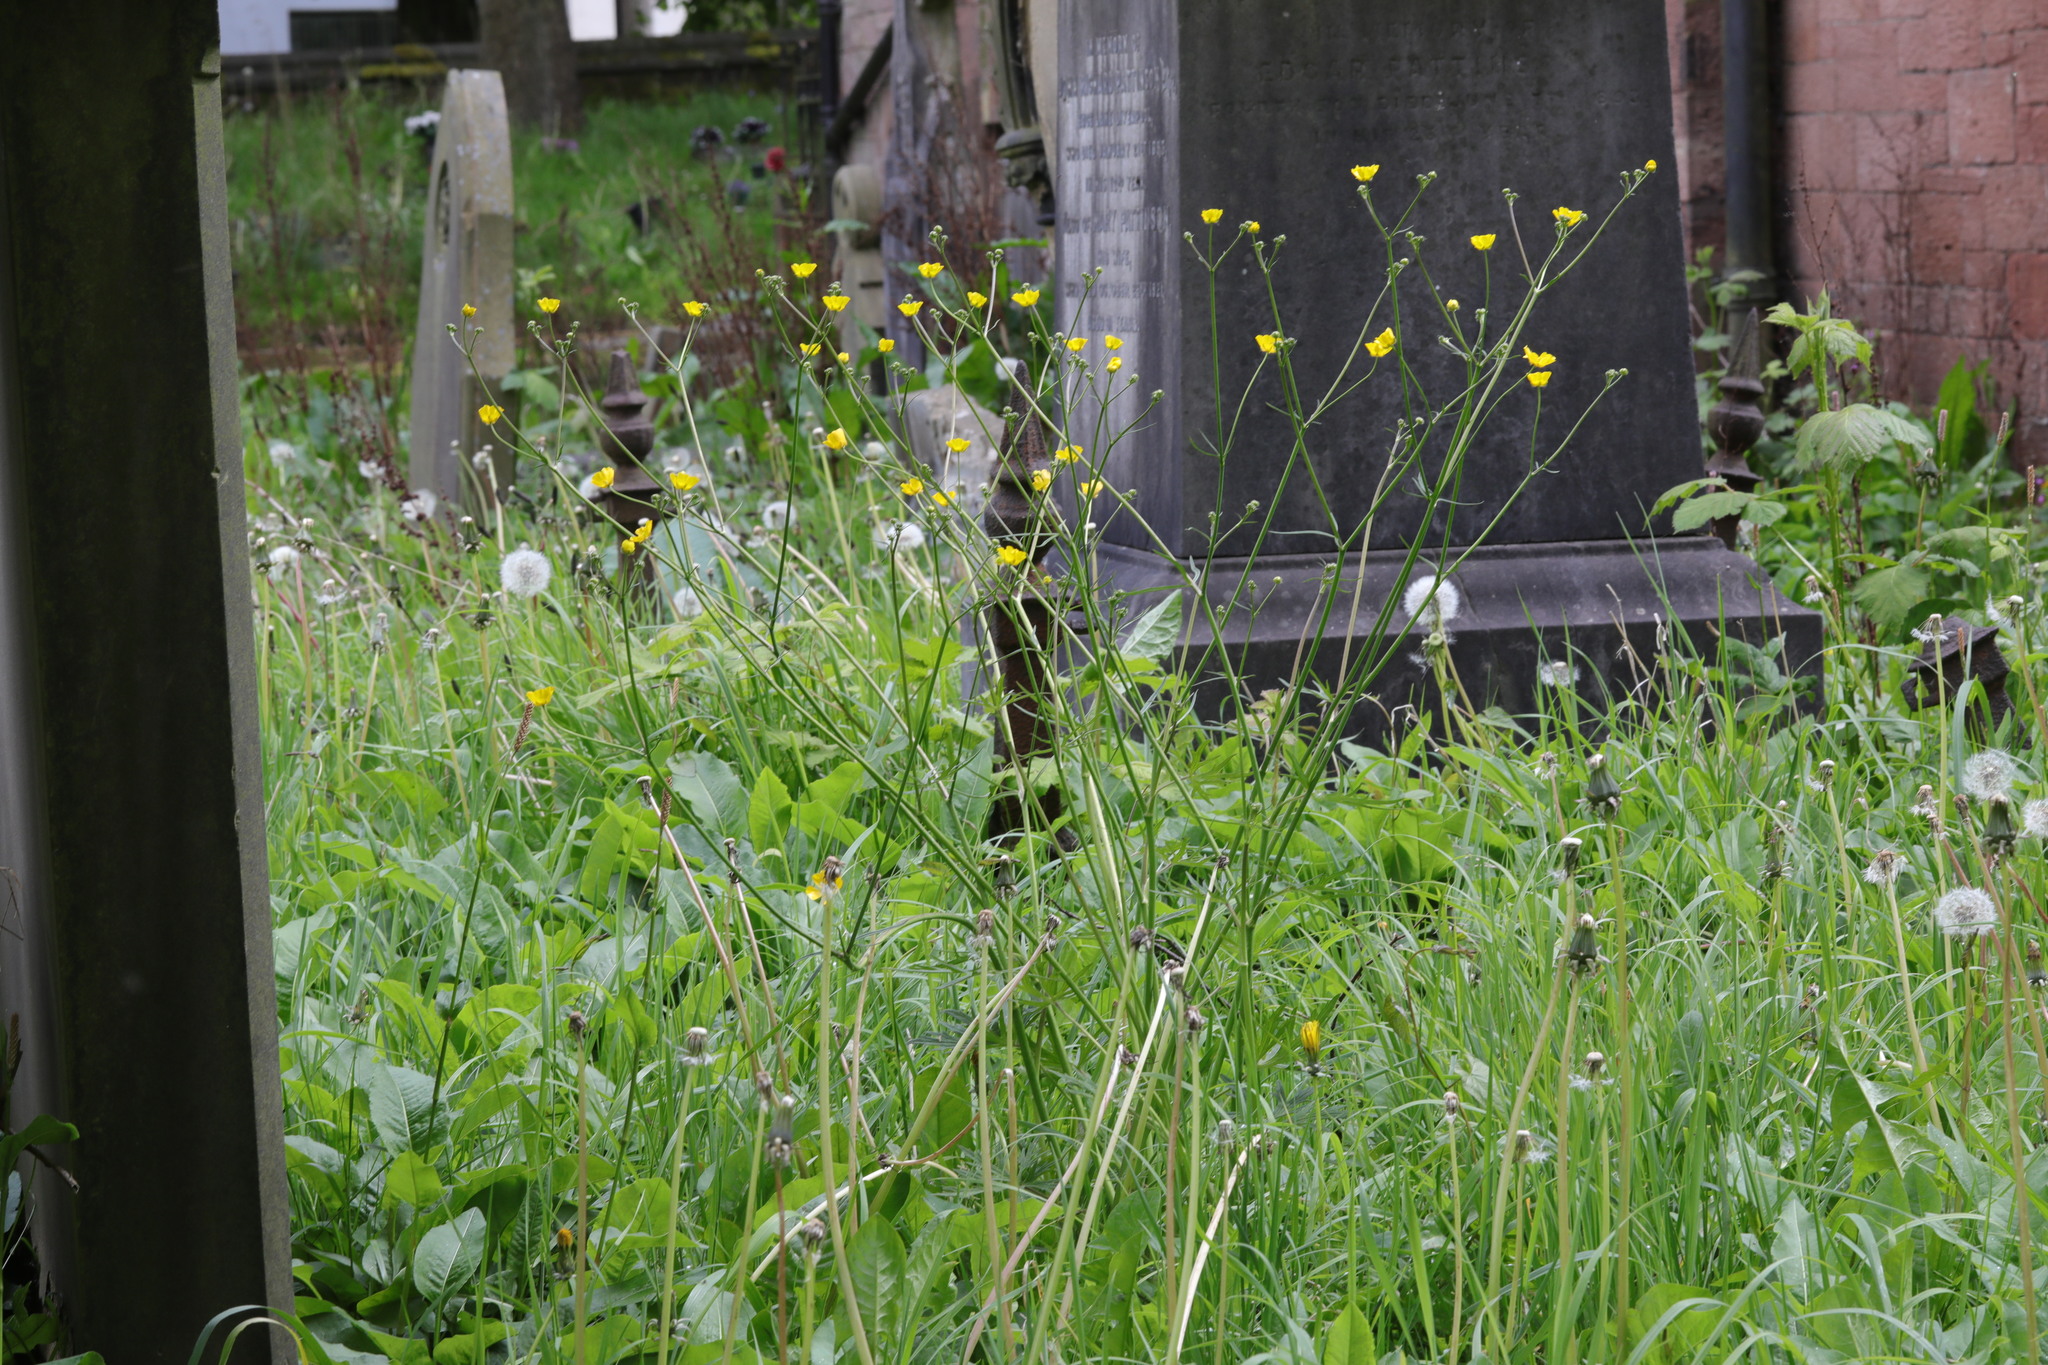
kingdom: Plantae
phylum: Tracheophyta
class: Magnoliopsida
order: Ranunculales
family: Ranunculaceae
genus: Ranunculus
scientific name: Ranunculus acris
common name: Meadow buttercup
